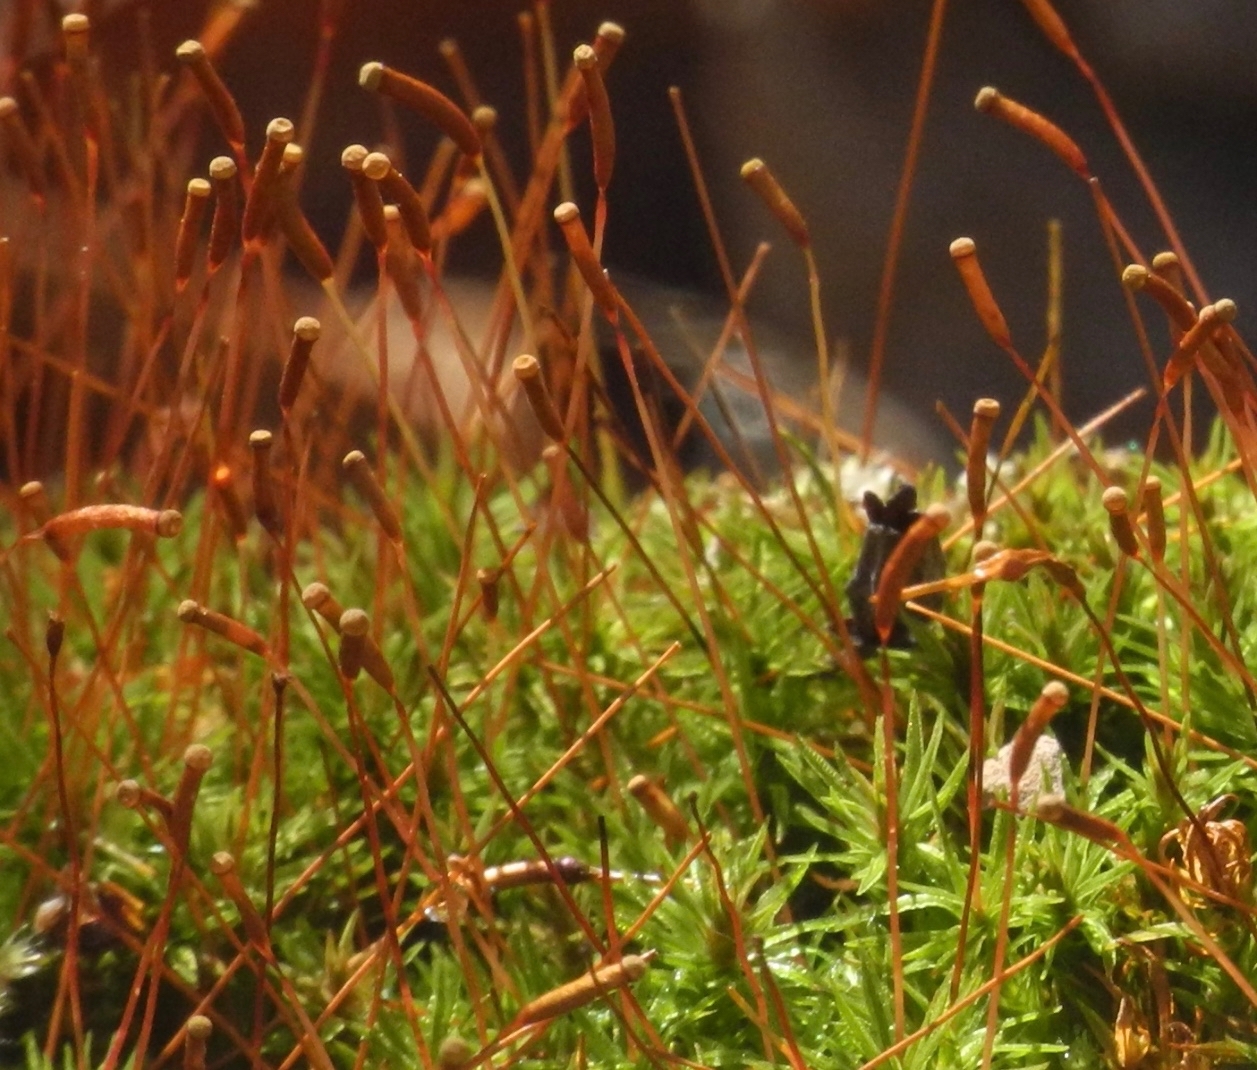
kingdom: Plantae
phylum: Bryophyta
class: Polytrichopsida
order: Polytrichales
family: Polytrichaceae
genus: Atrichum
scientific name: Atrichum angustatum
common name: Lesser smoothcap
